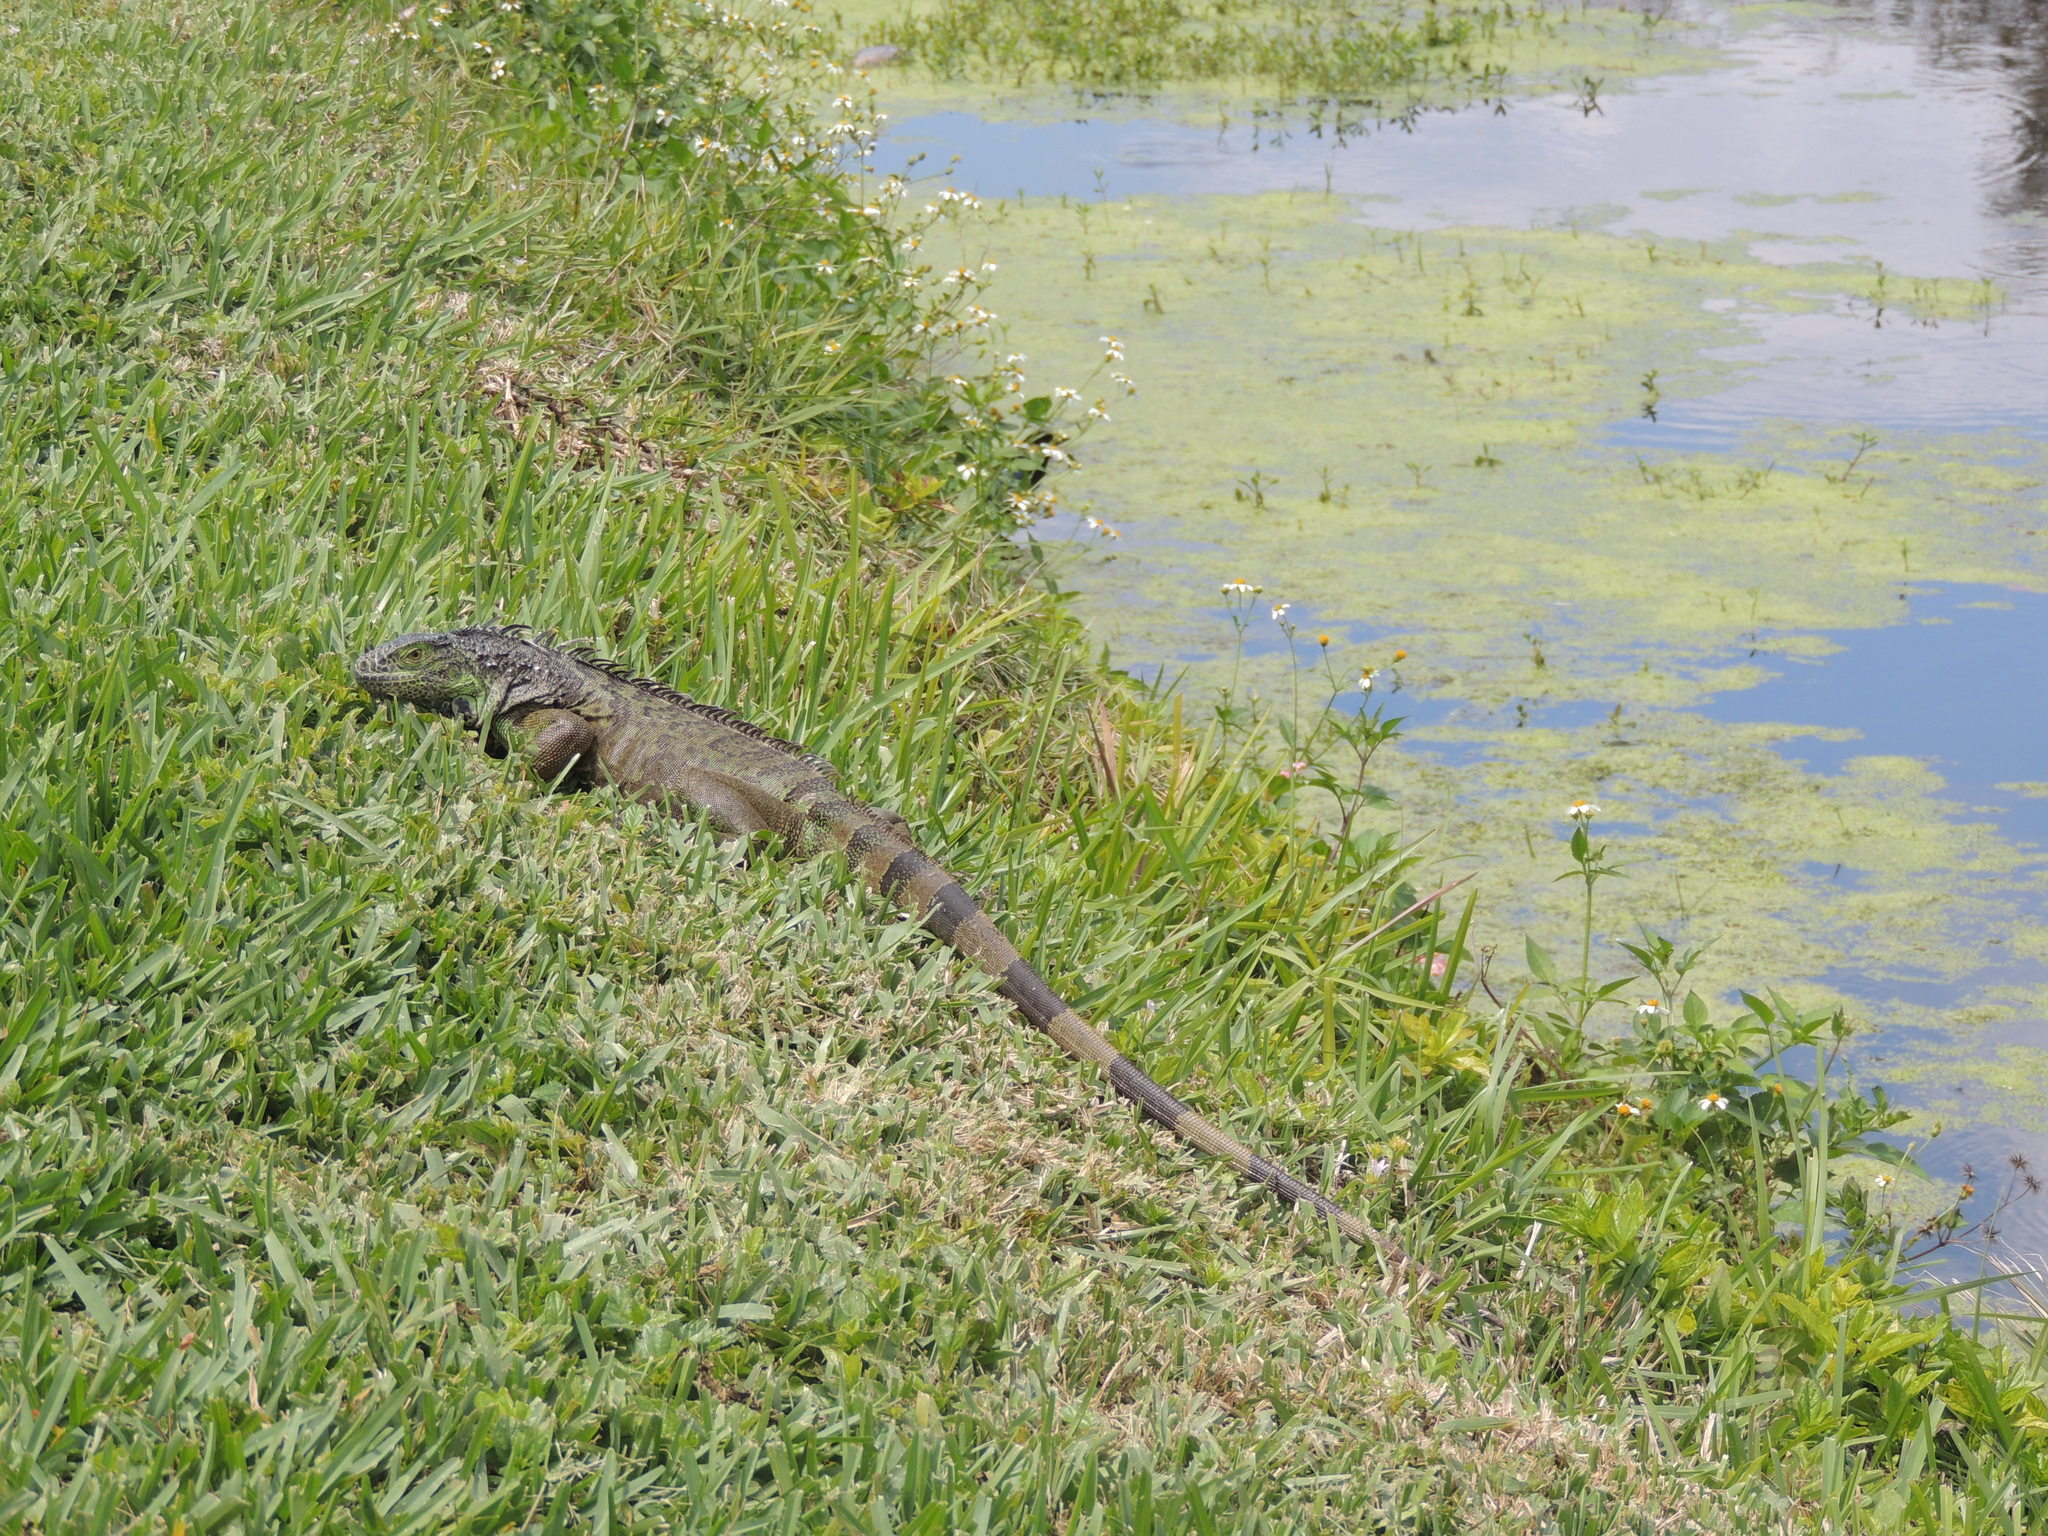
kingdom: Animalia
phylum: Chordata
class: Squamata
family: Iguanidae
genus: Iguana
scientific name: Iguana iguana
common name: Green iguana
